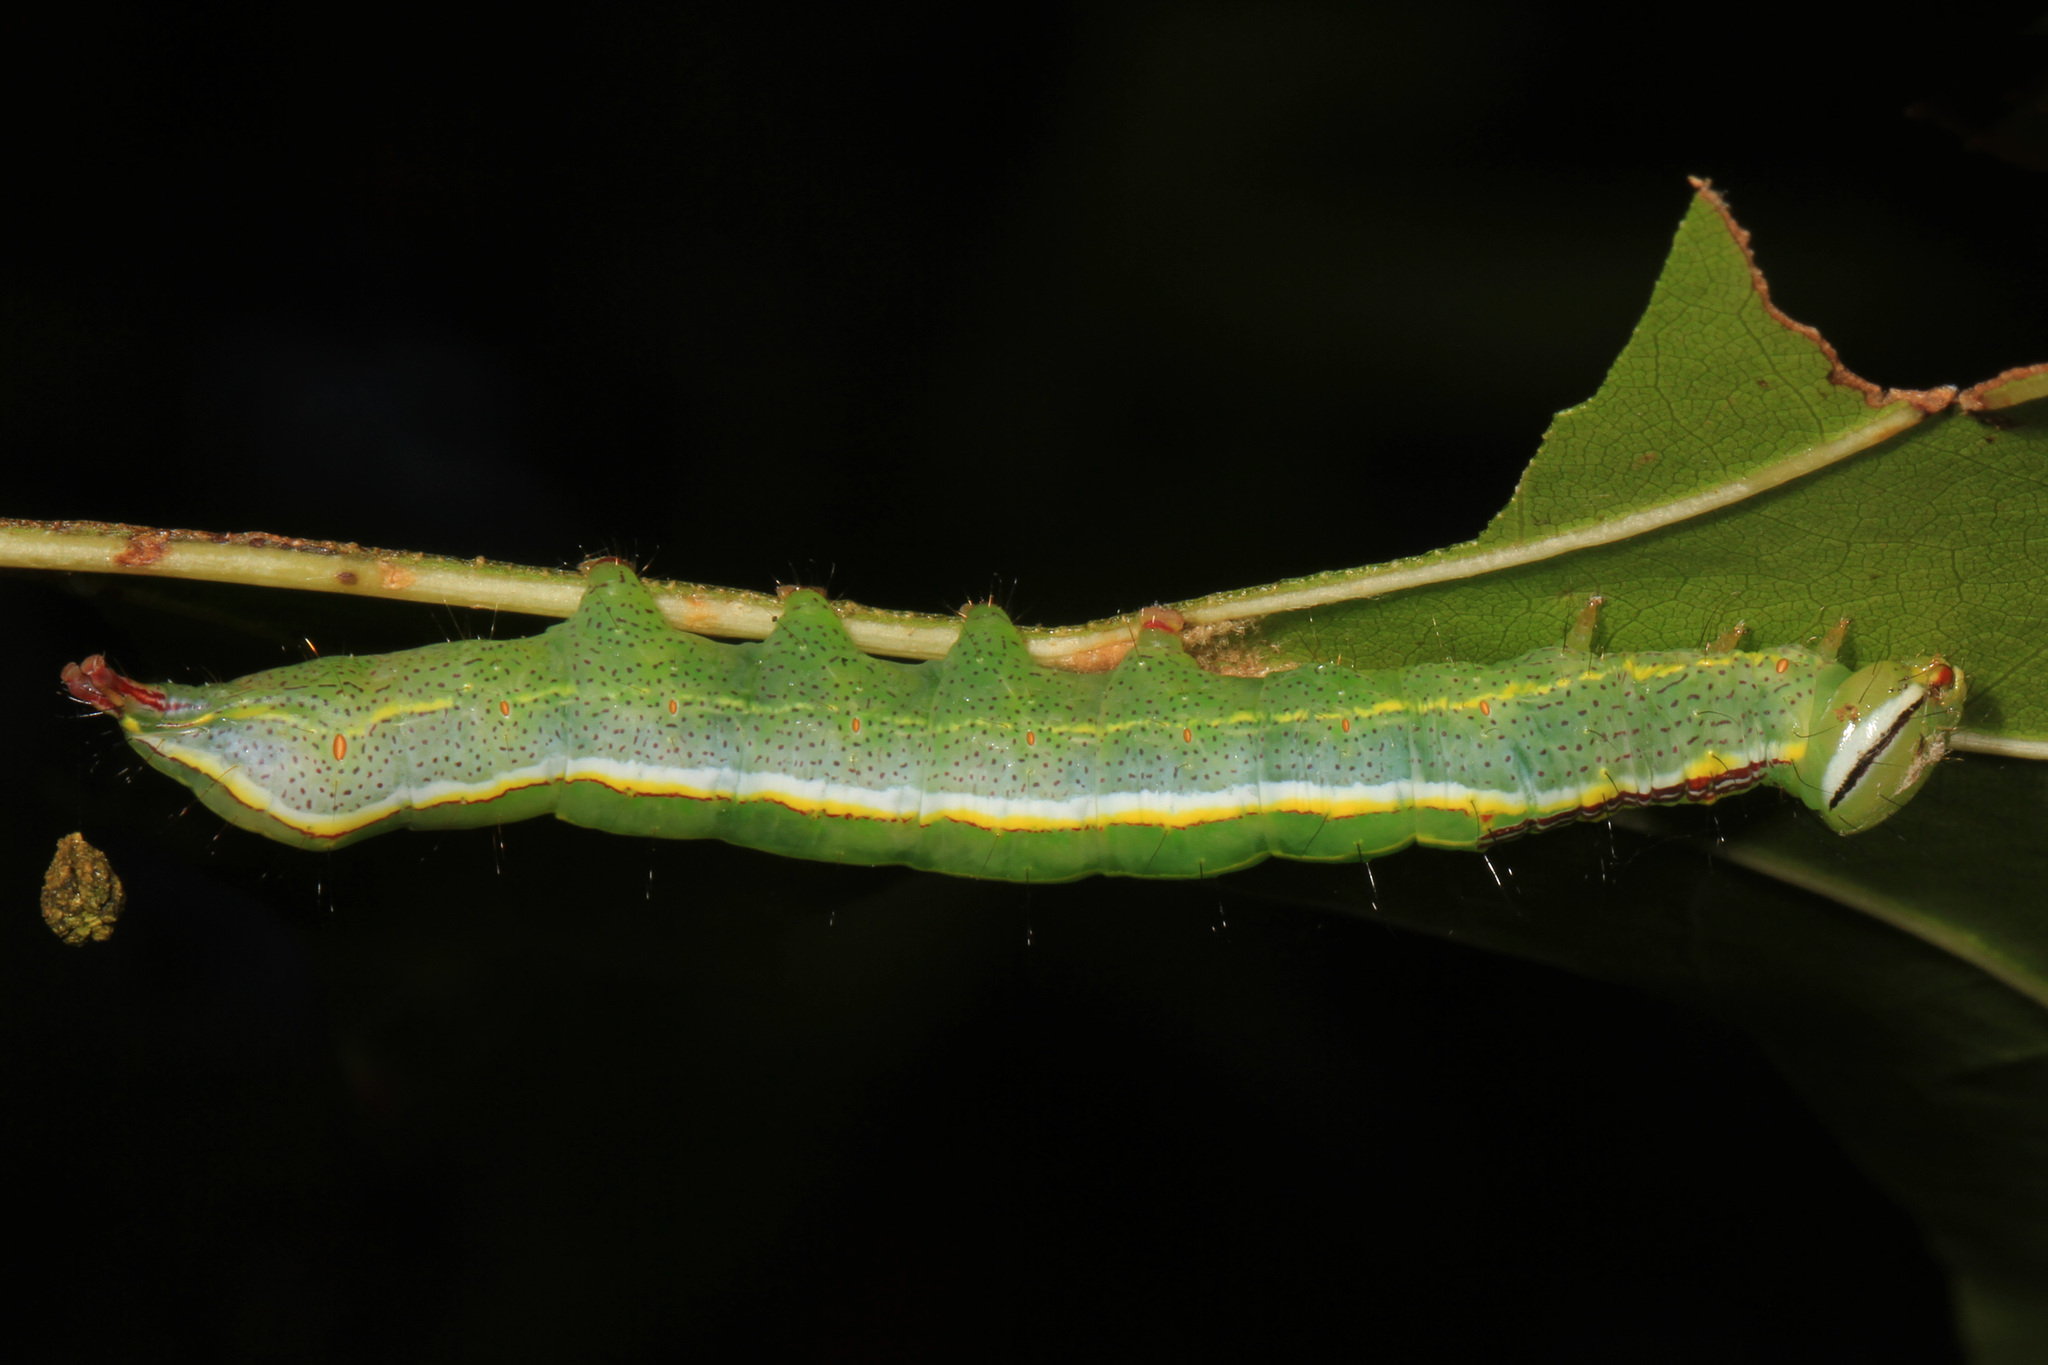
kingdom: Animalia
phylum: Arthropoda
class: Insecta
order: Lepidoptera
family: Notodontidae
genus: Lochmaeus
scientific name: Lochmaeus manteo
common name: Variable oakleaf caterpillar moth
